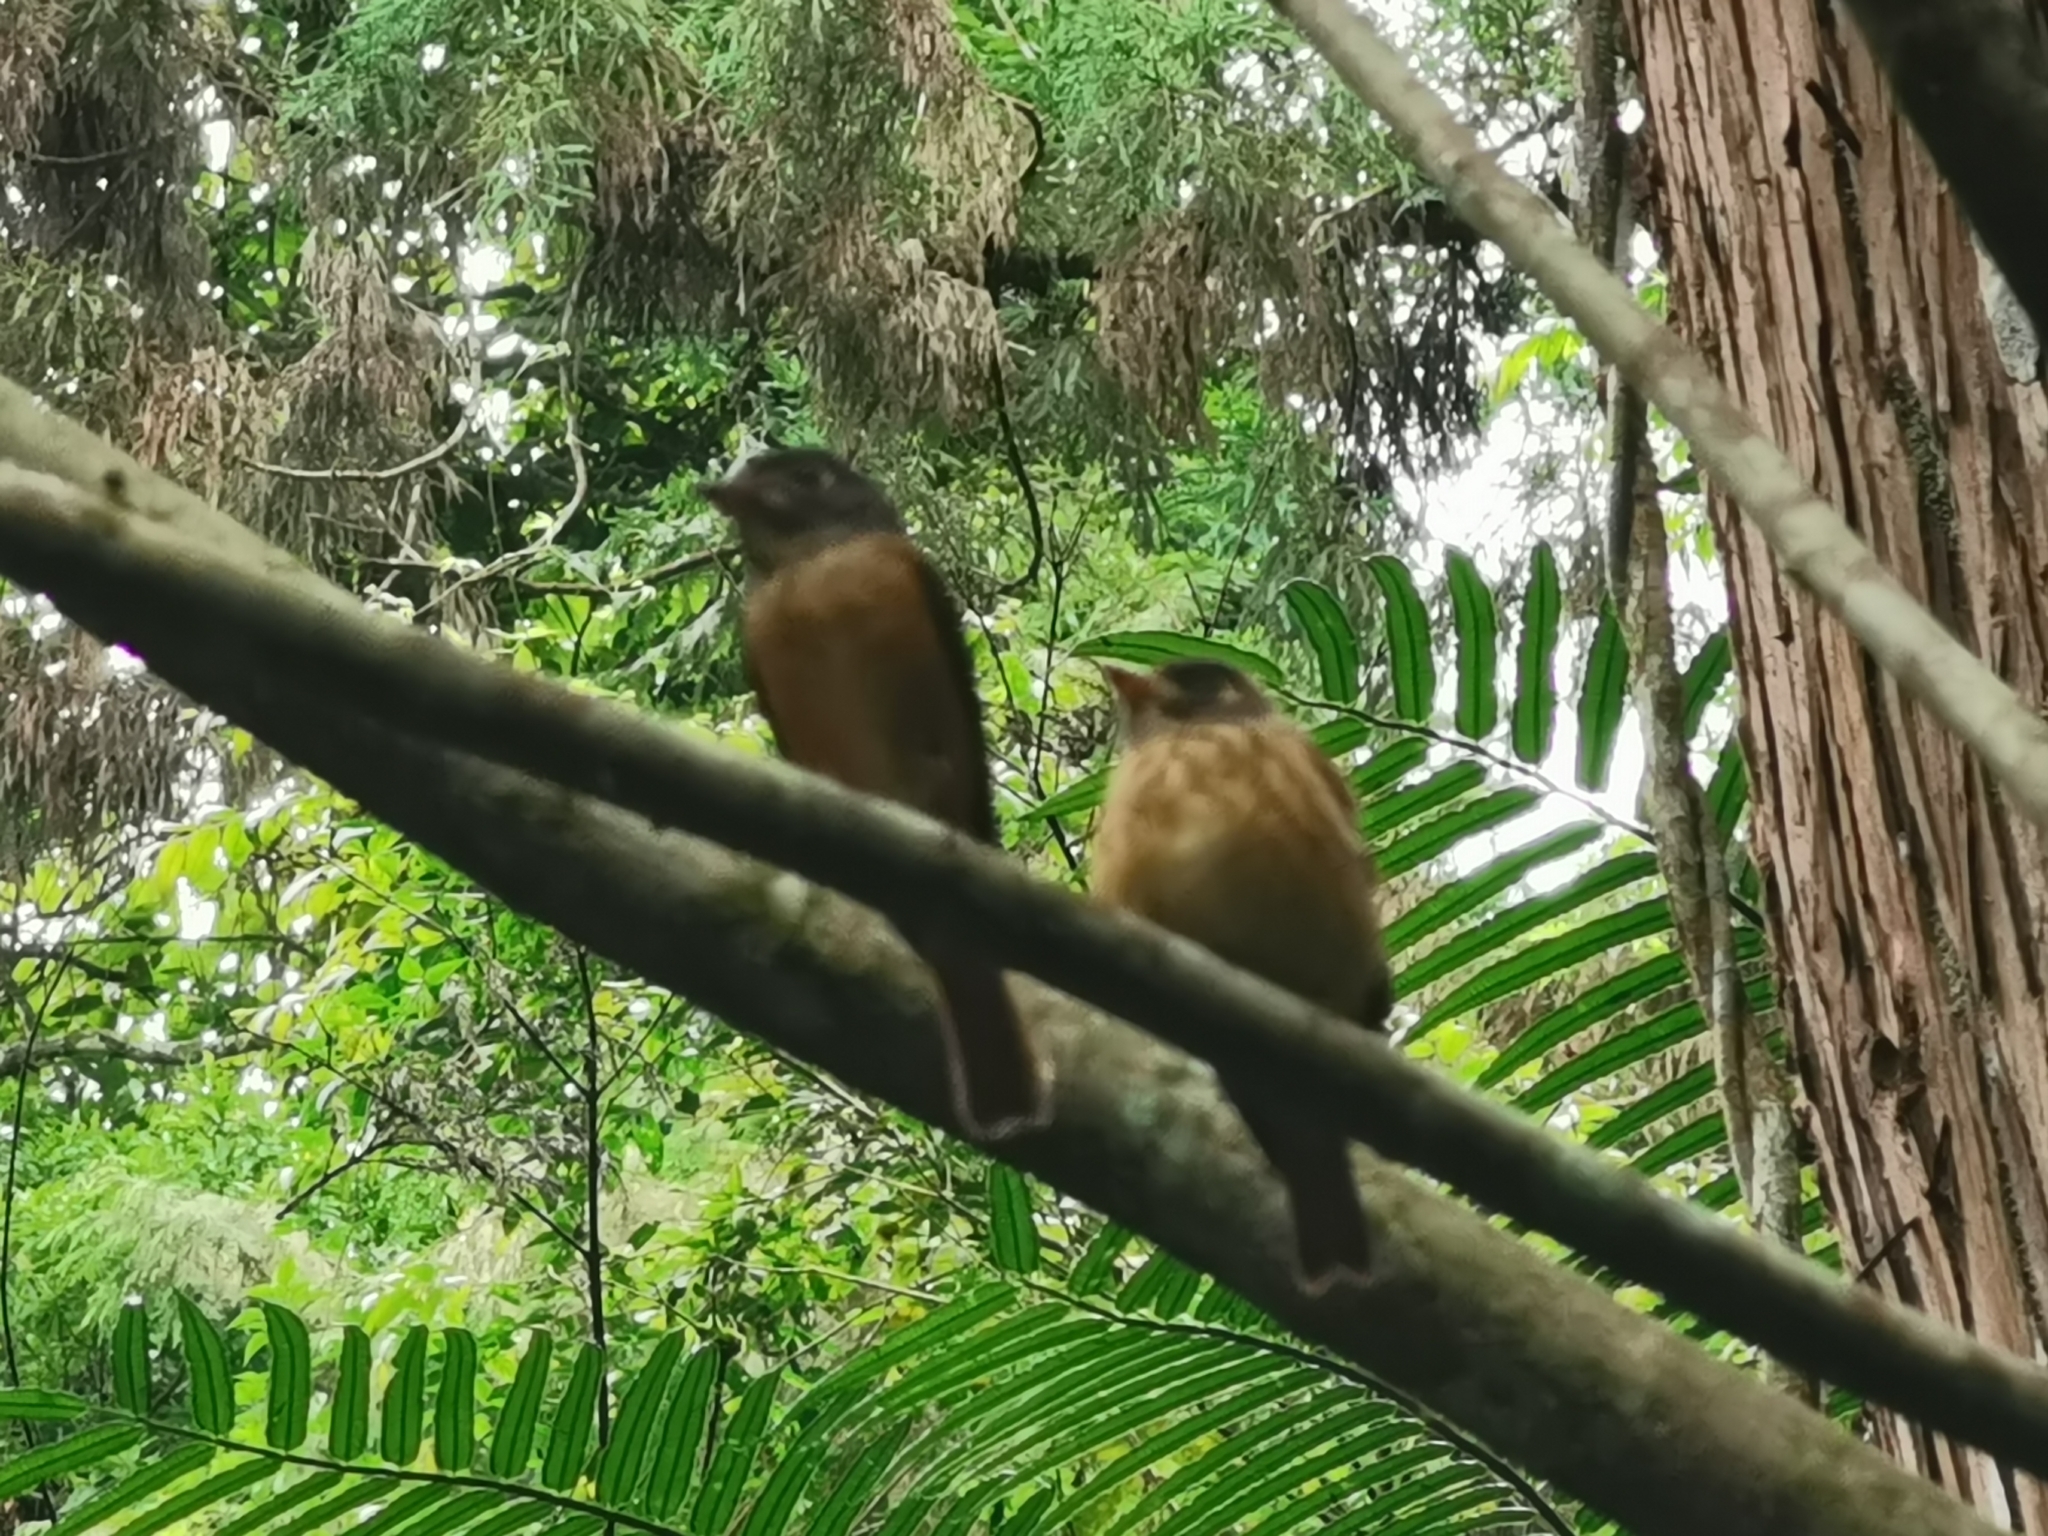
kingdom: Animalia
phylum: Chordata
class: Aves
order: Passeriformes
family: Muscicapidae
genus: Muscicapa
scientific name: Muscicapa ferruginea
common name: Ferruginous flycatcher
